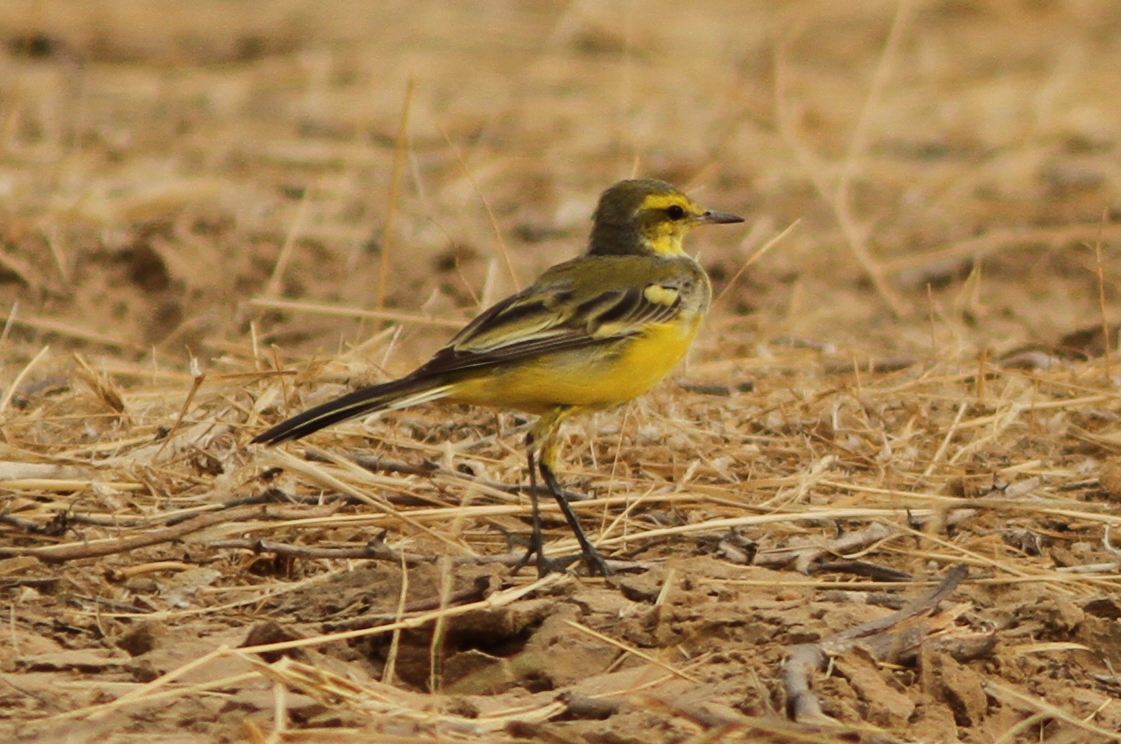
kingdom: Animalia
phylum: Chordata
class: Aves
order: Passeriformes
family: Motacillidae
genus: Motacilla
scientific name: Motacilla flava
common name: Western yellow wagtail
